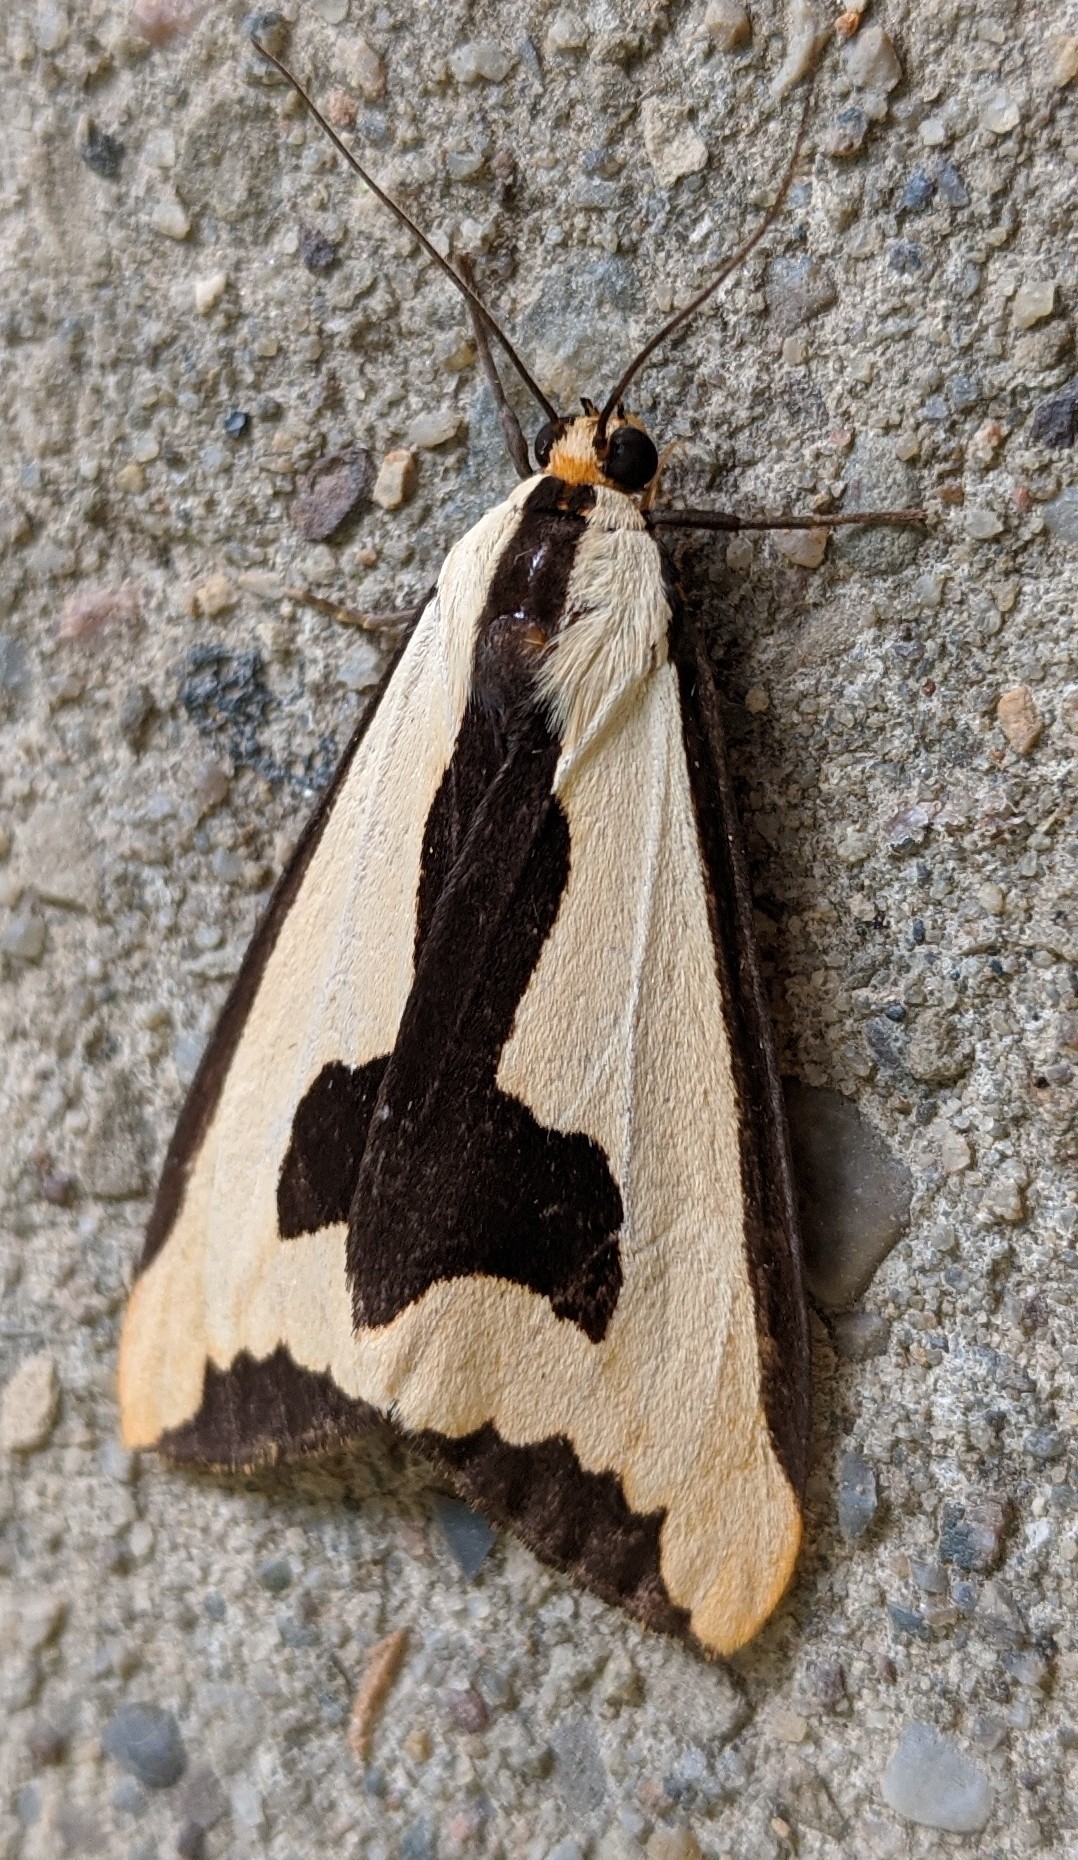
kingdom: Animalia
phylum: Arthropoda
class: Insecta
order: Lepidoptera
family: Erebidae
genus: Haploa
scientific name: Haploa clymene
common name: Clymene moth
